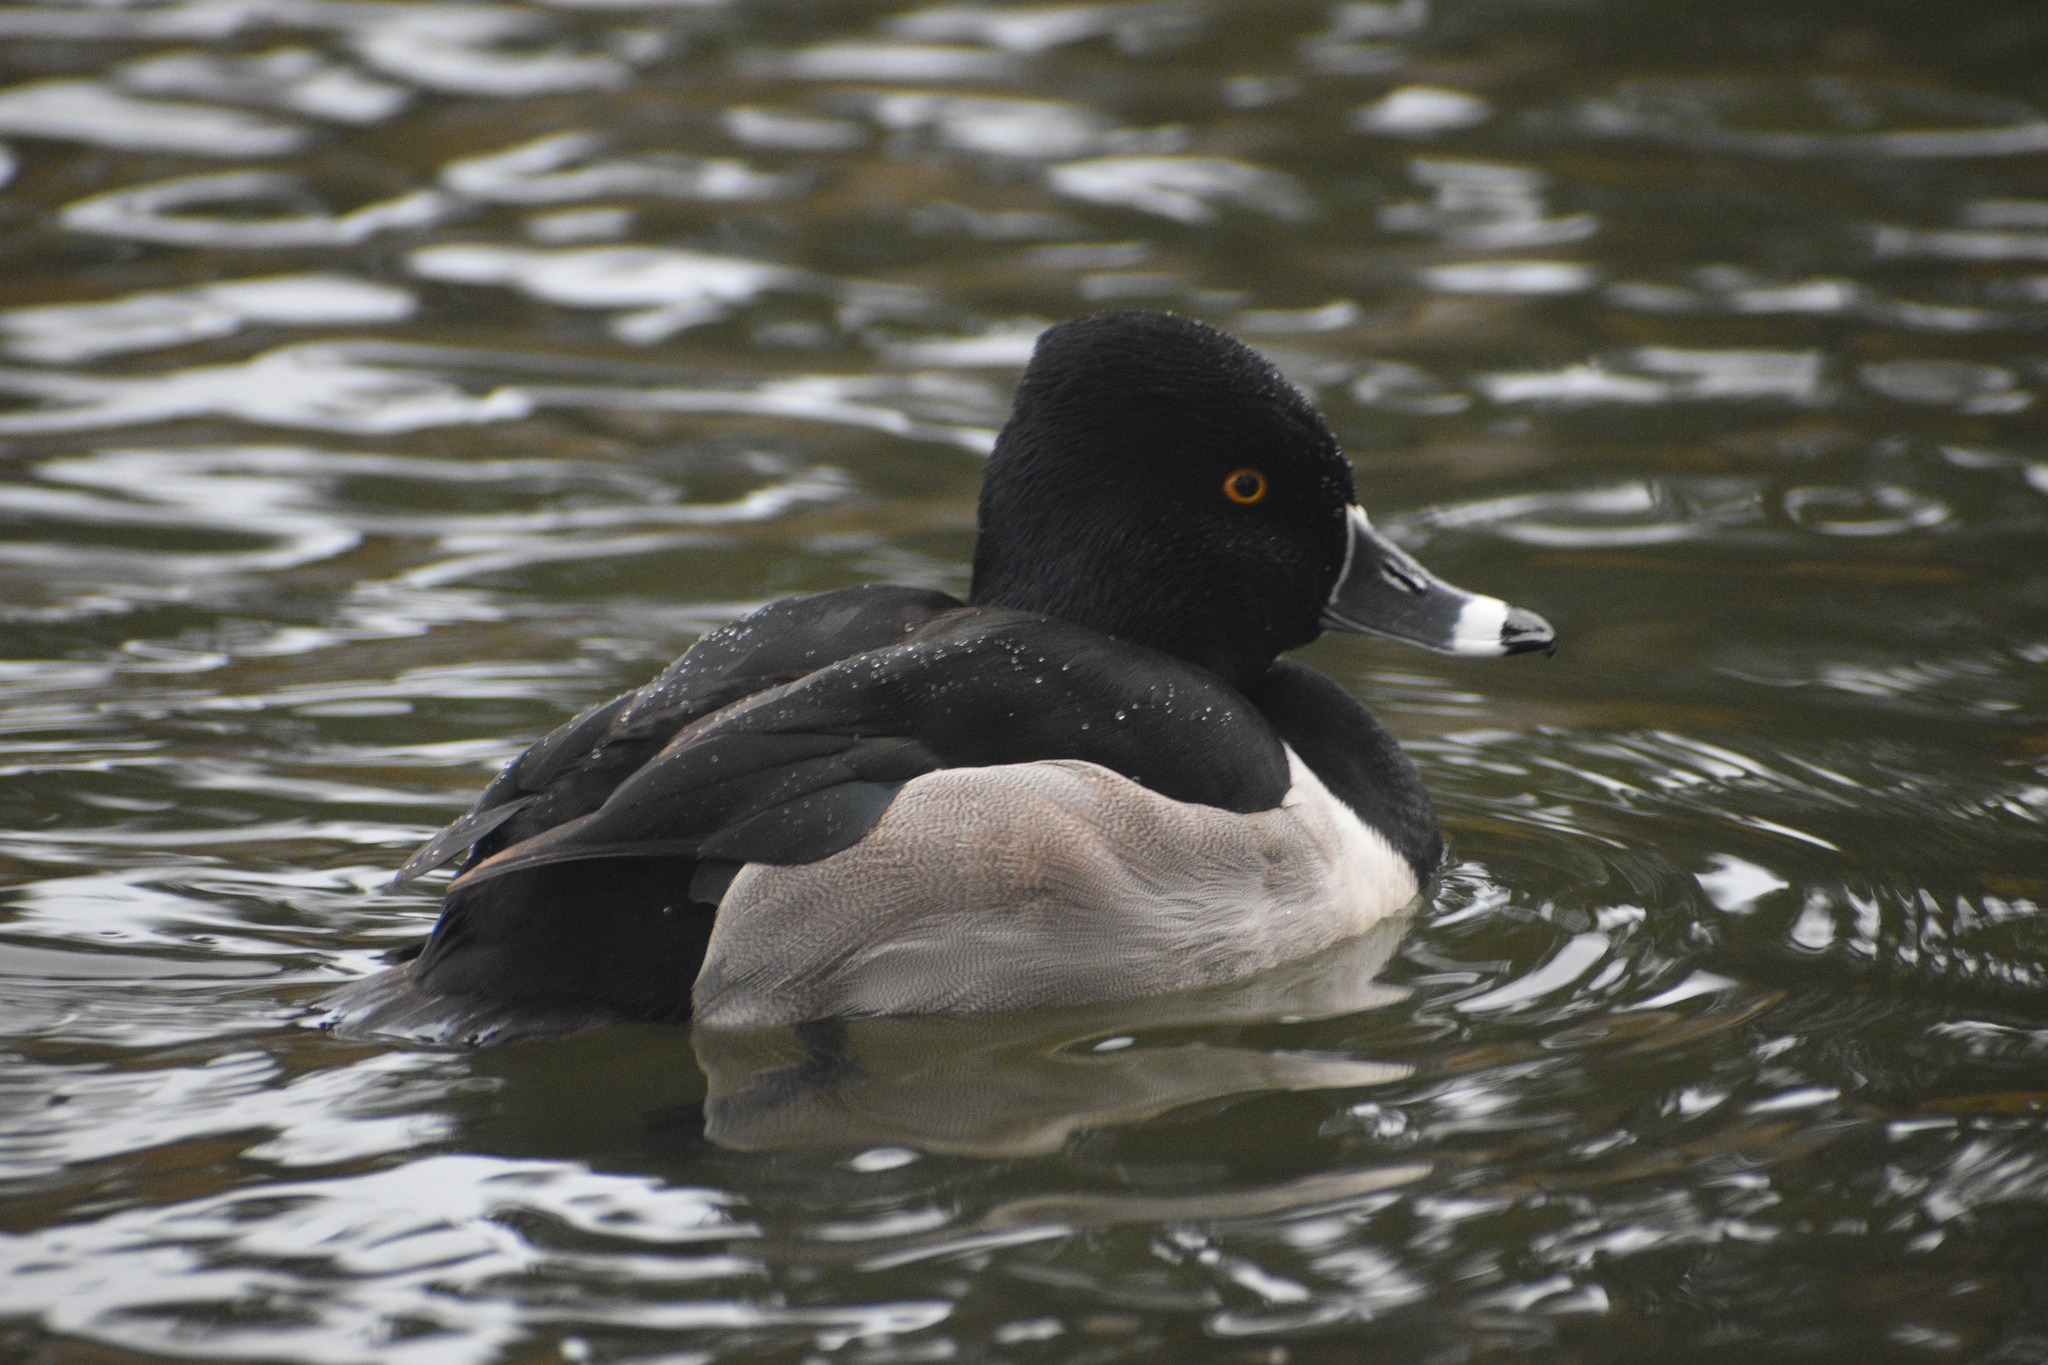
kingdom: Animalia
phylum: Chordata
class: Aves
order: Anseriformes
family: Anatidae
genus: Aythya
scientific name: Aythya collaris
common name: Ring-necked duck
